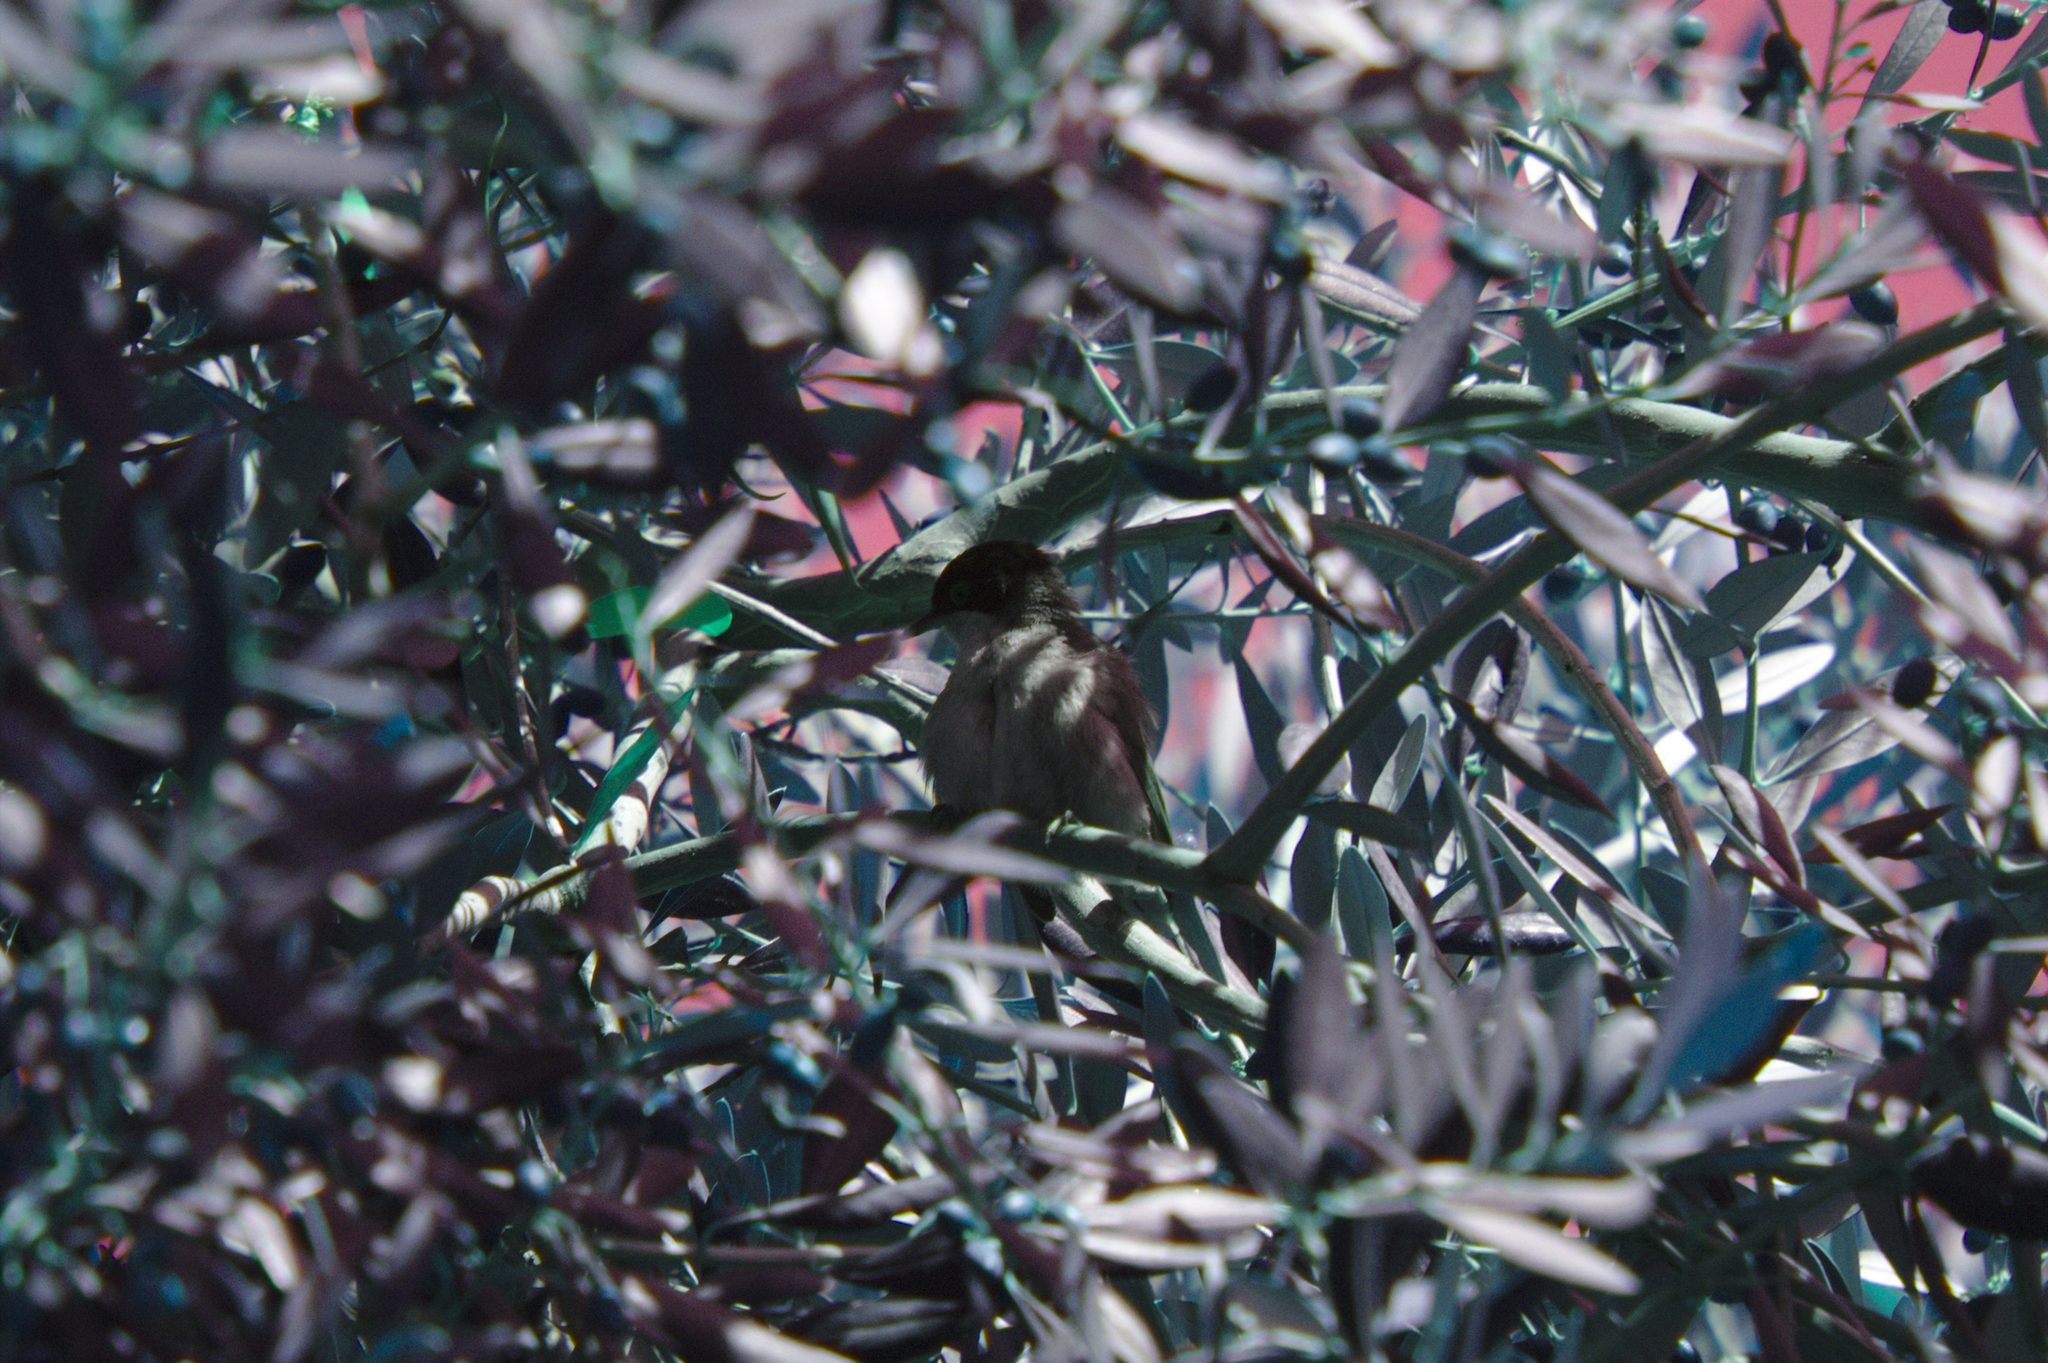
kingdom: Animalia
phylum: Chordata
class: Aves
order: Passeriformes
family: Sylviidae
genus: Curruca
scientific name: Curruca melanocephala
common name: Sardinian warbler
